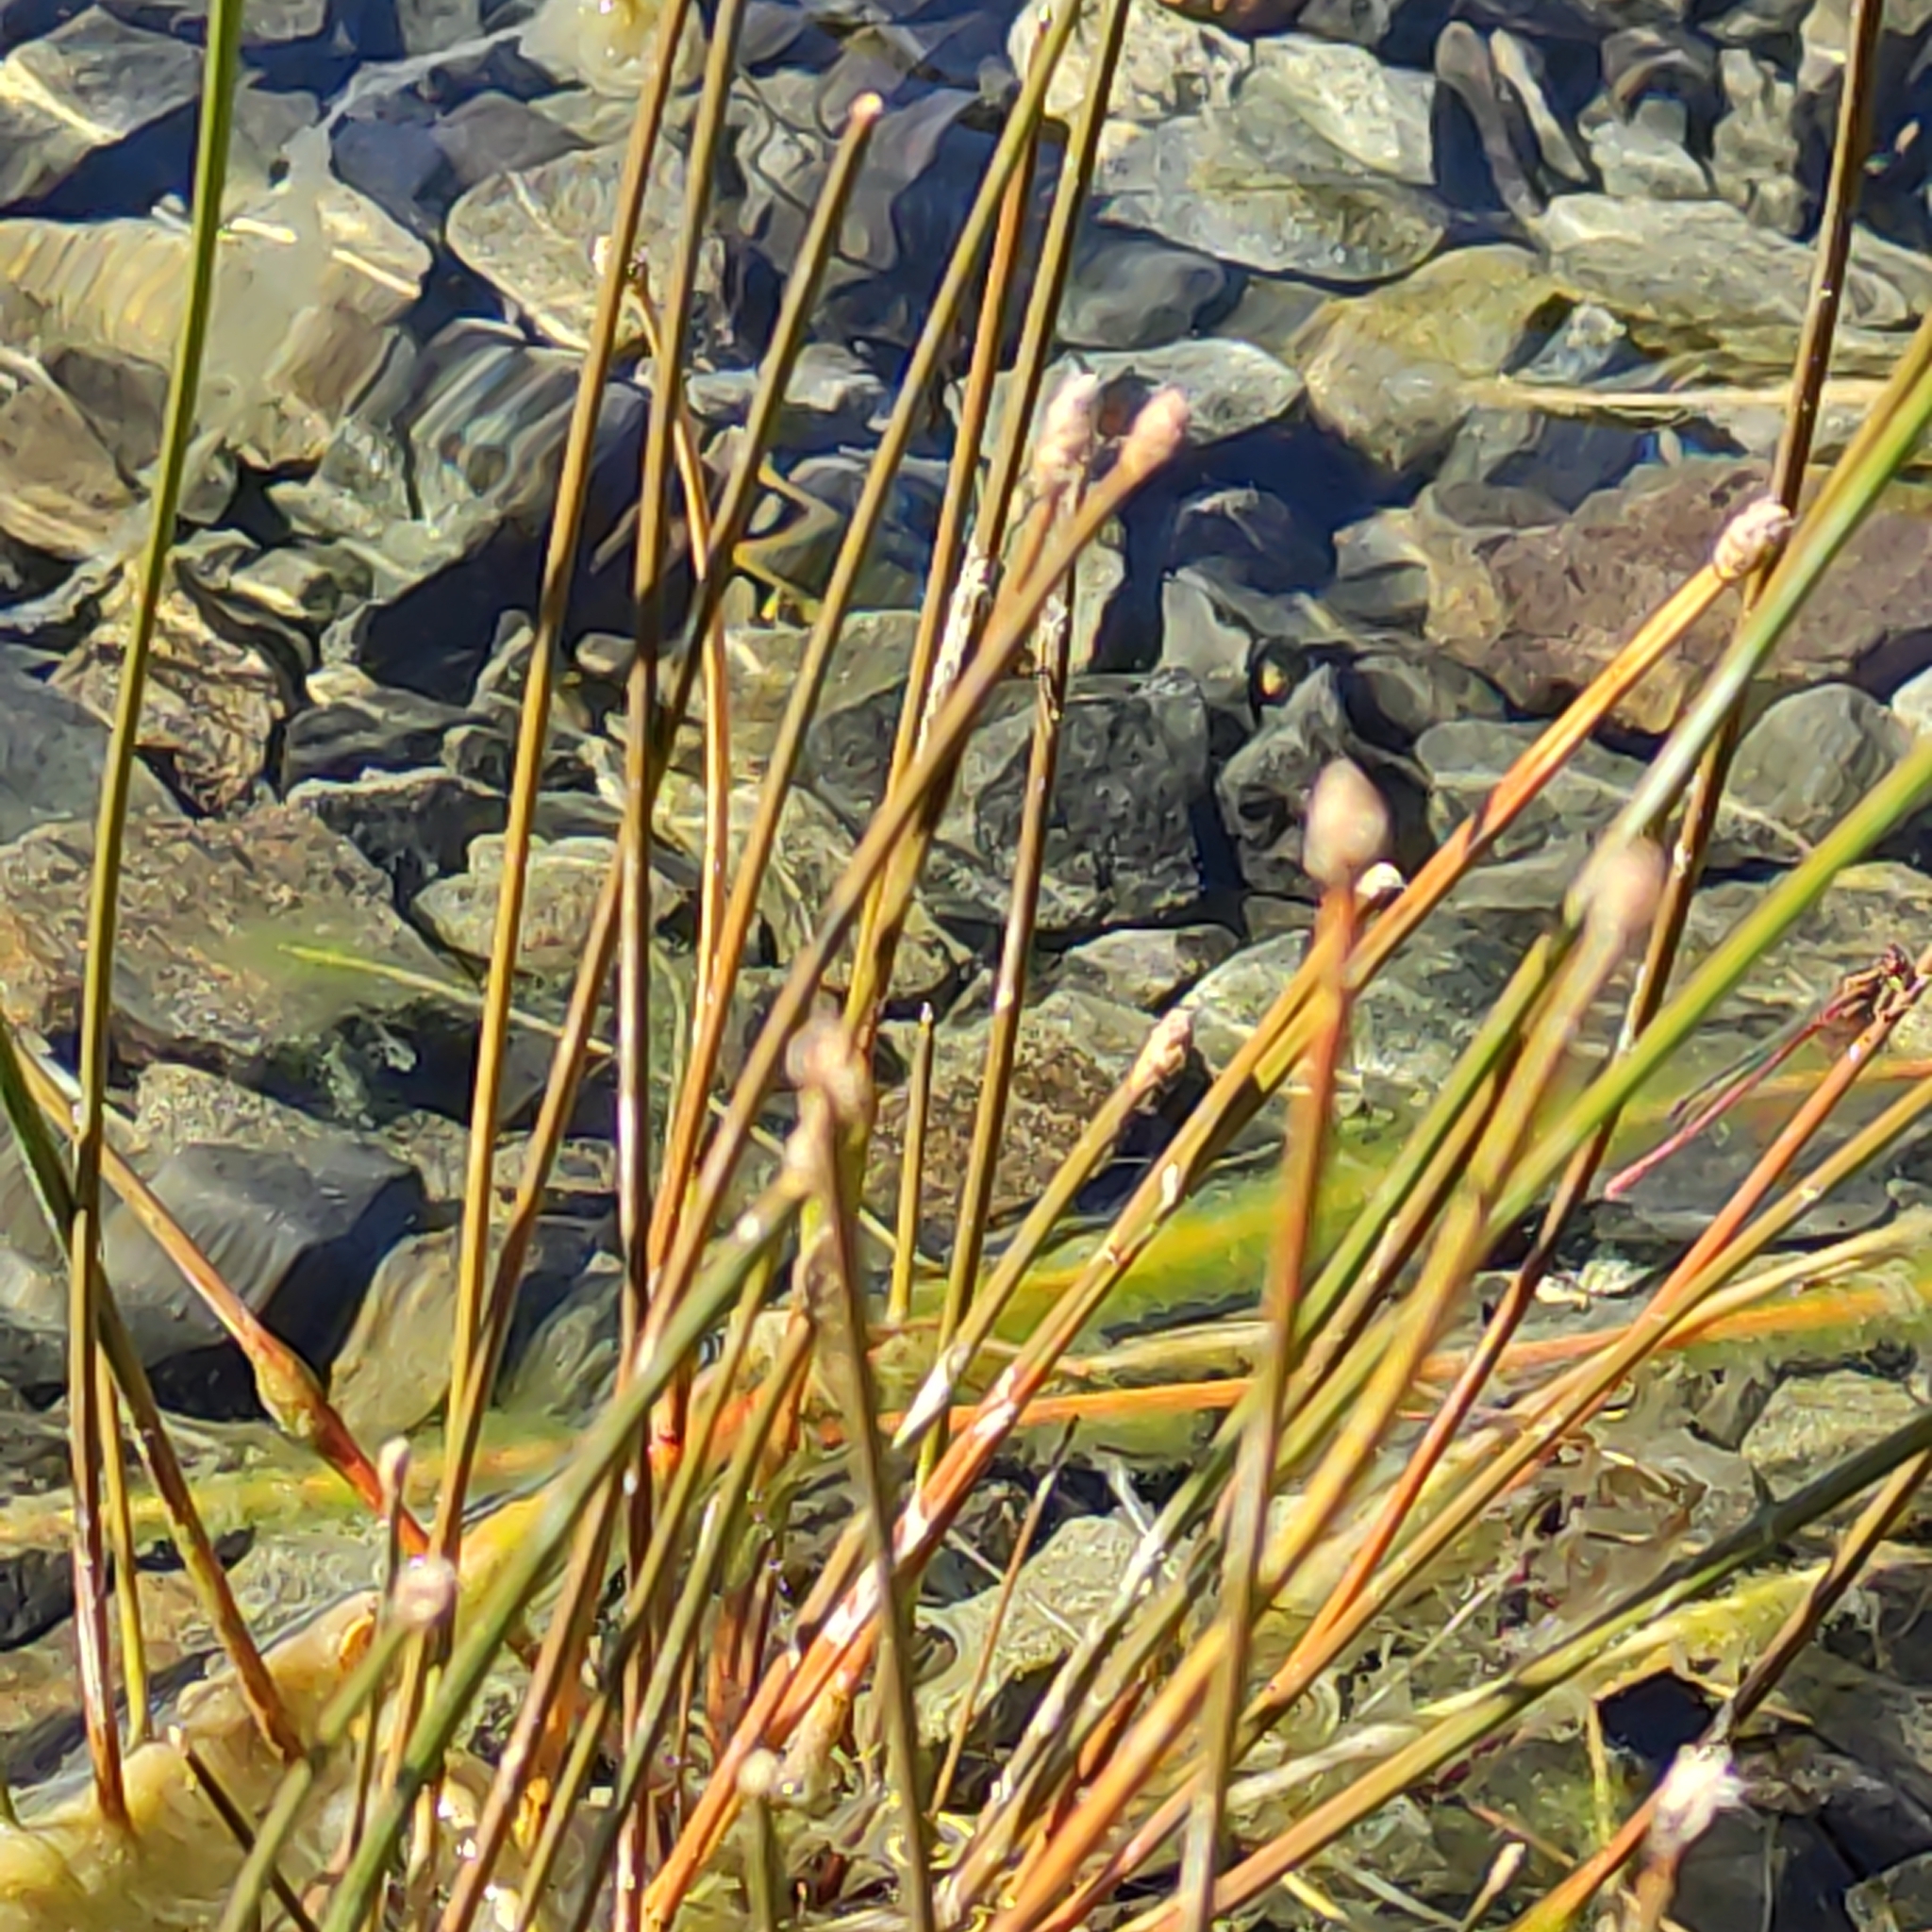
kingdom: Plantae
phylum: Tracheophyta
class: Liliopsida
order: Poales
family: Cyperaceae
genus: Eleocharis
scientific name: Eleocharis acuta
